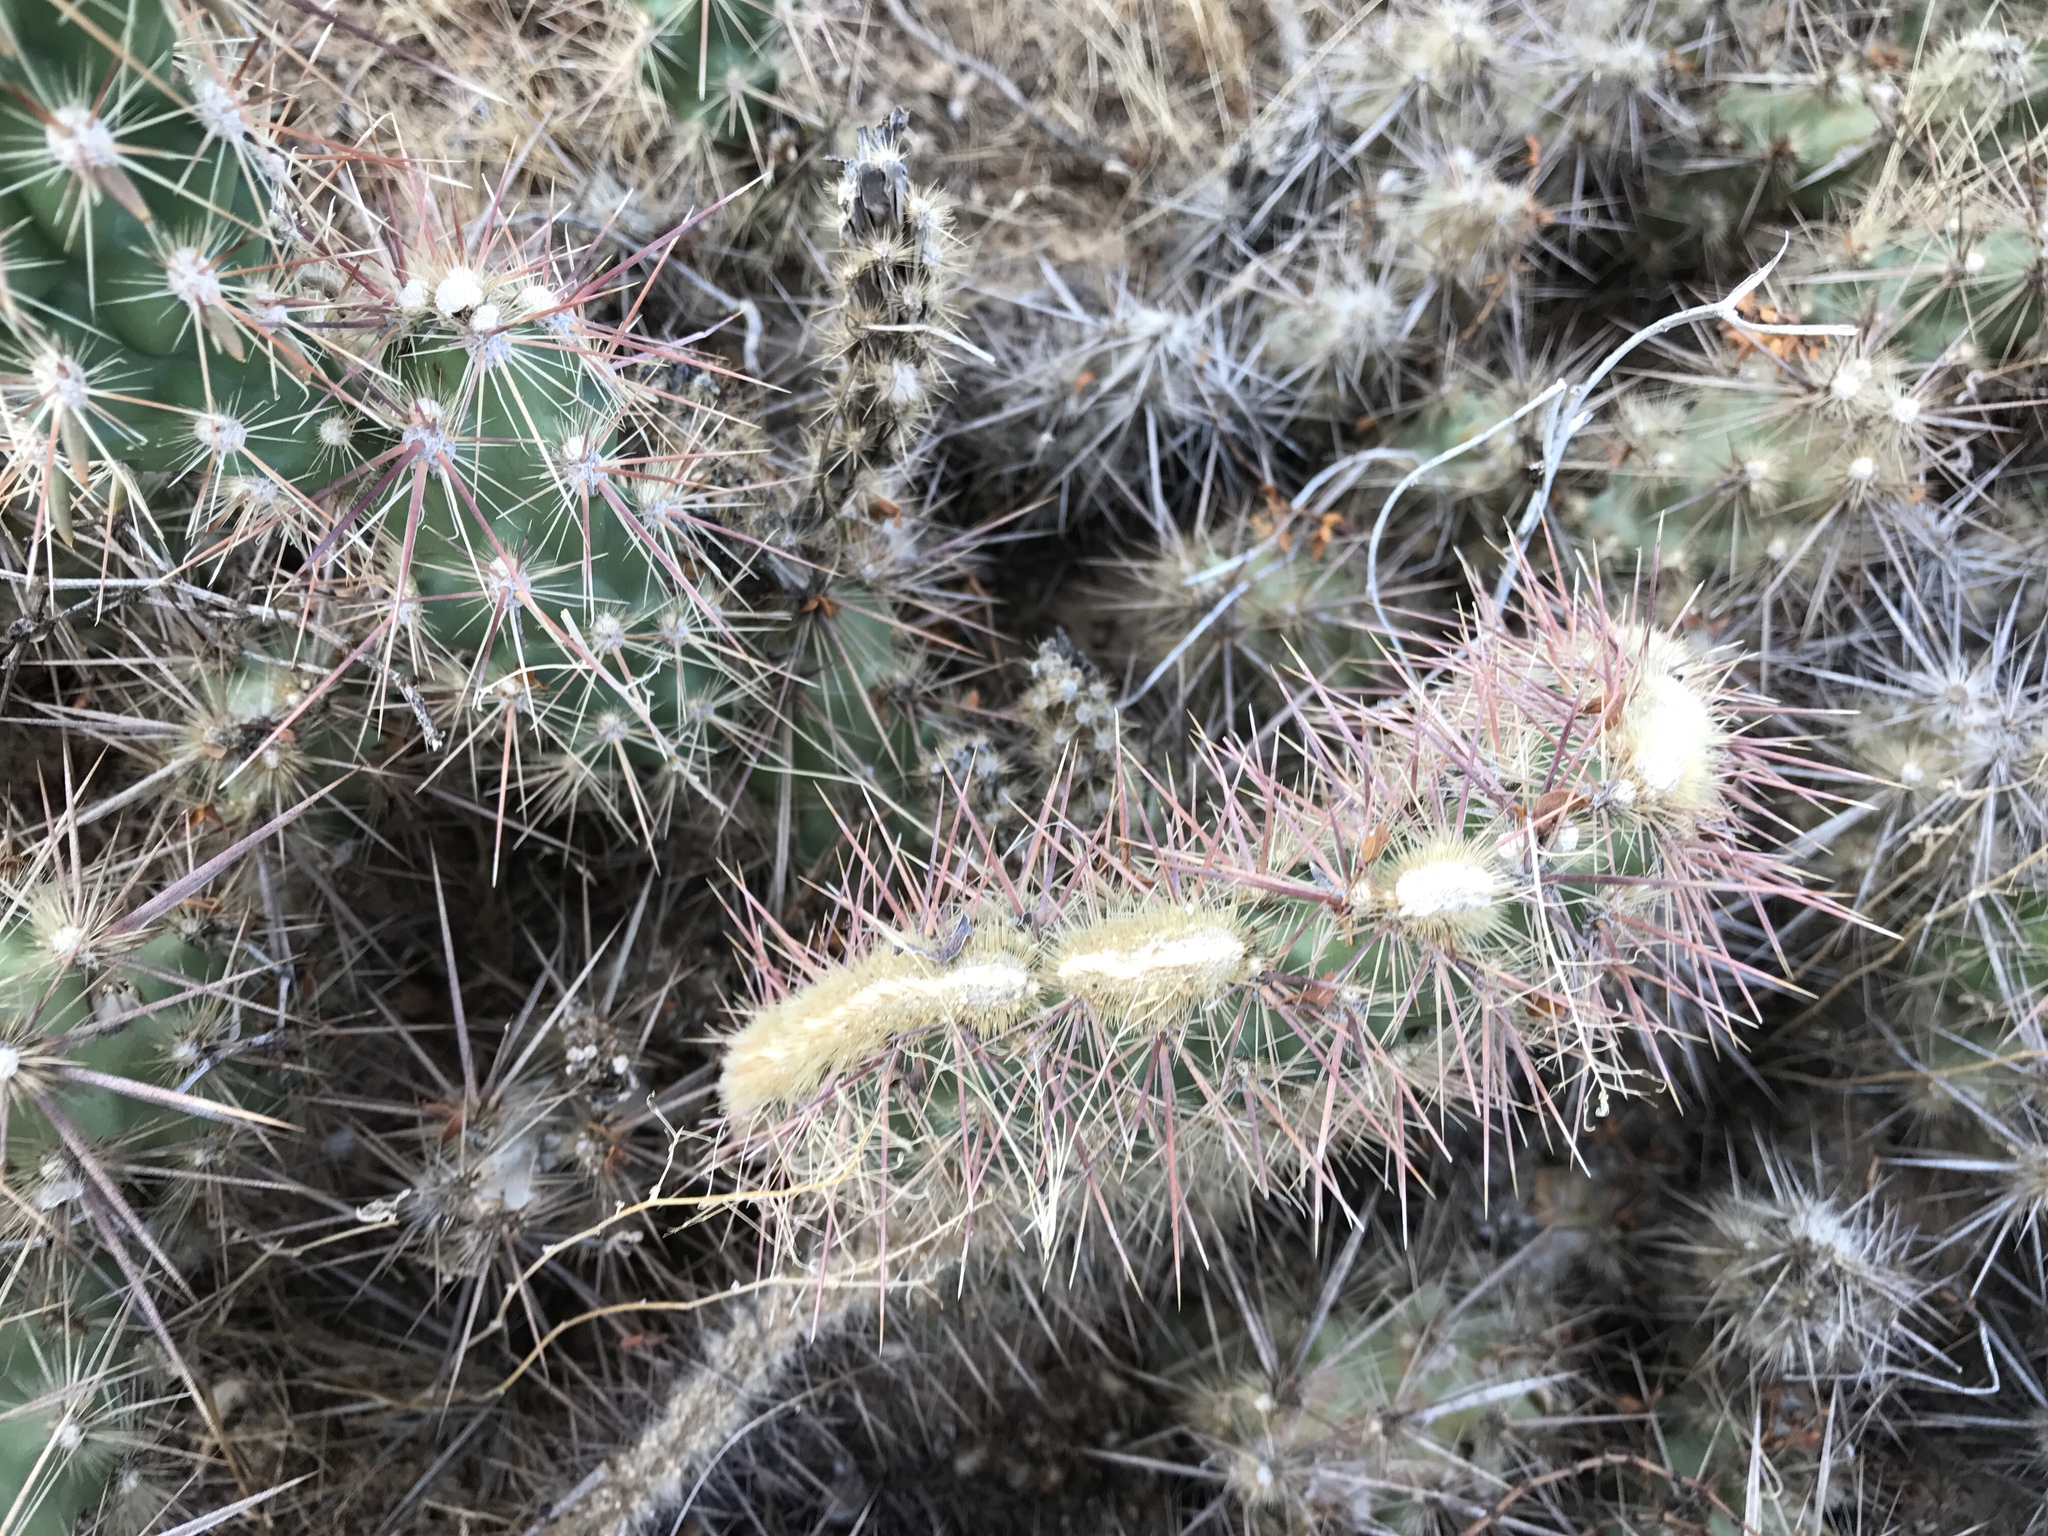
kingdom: Plantae
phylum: Tracheophyta
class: Magnoliopsida
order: Caryophyllales
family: Cactaceae
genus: Grusonia
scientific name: Grusonia parishiorum
